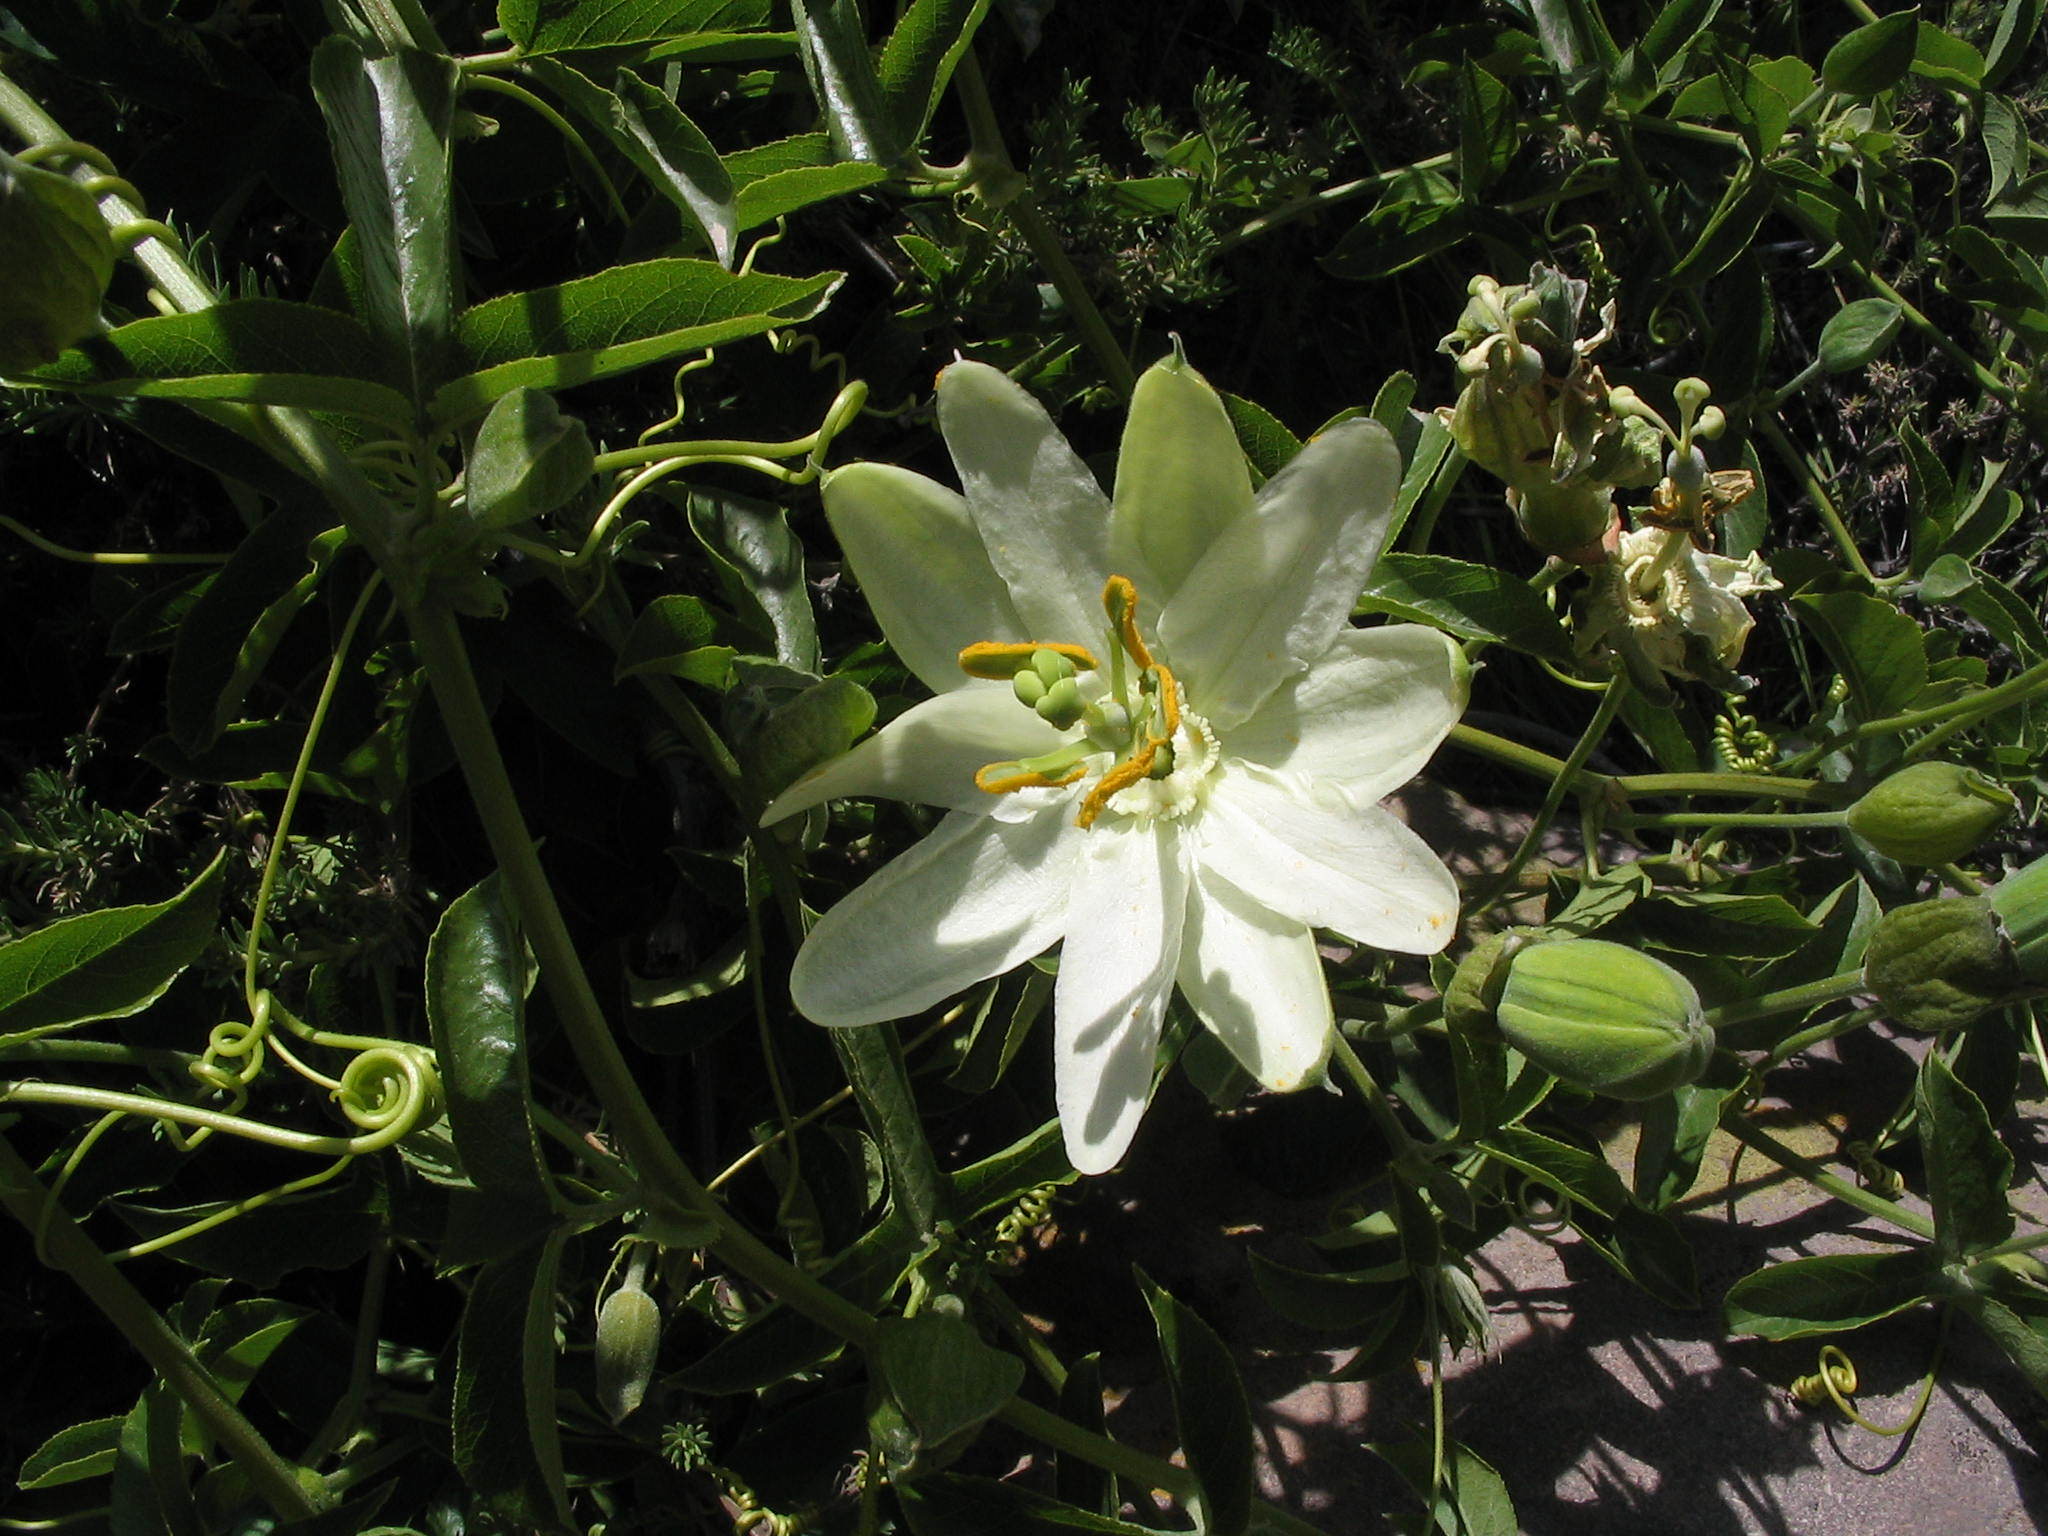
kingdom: Plantae
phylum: Tracheophyta
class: Magnoliopsida
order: Malpighiales
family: Passifloraceae
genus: Passiflora
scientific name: Passiflora peduncularis
